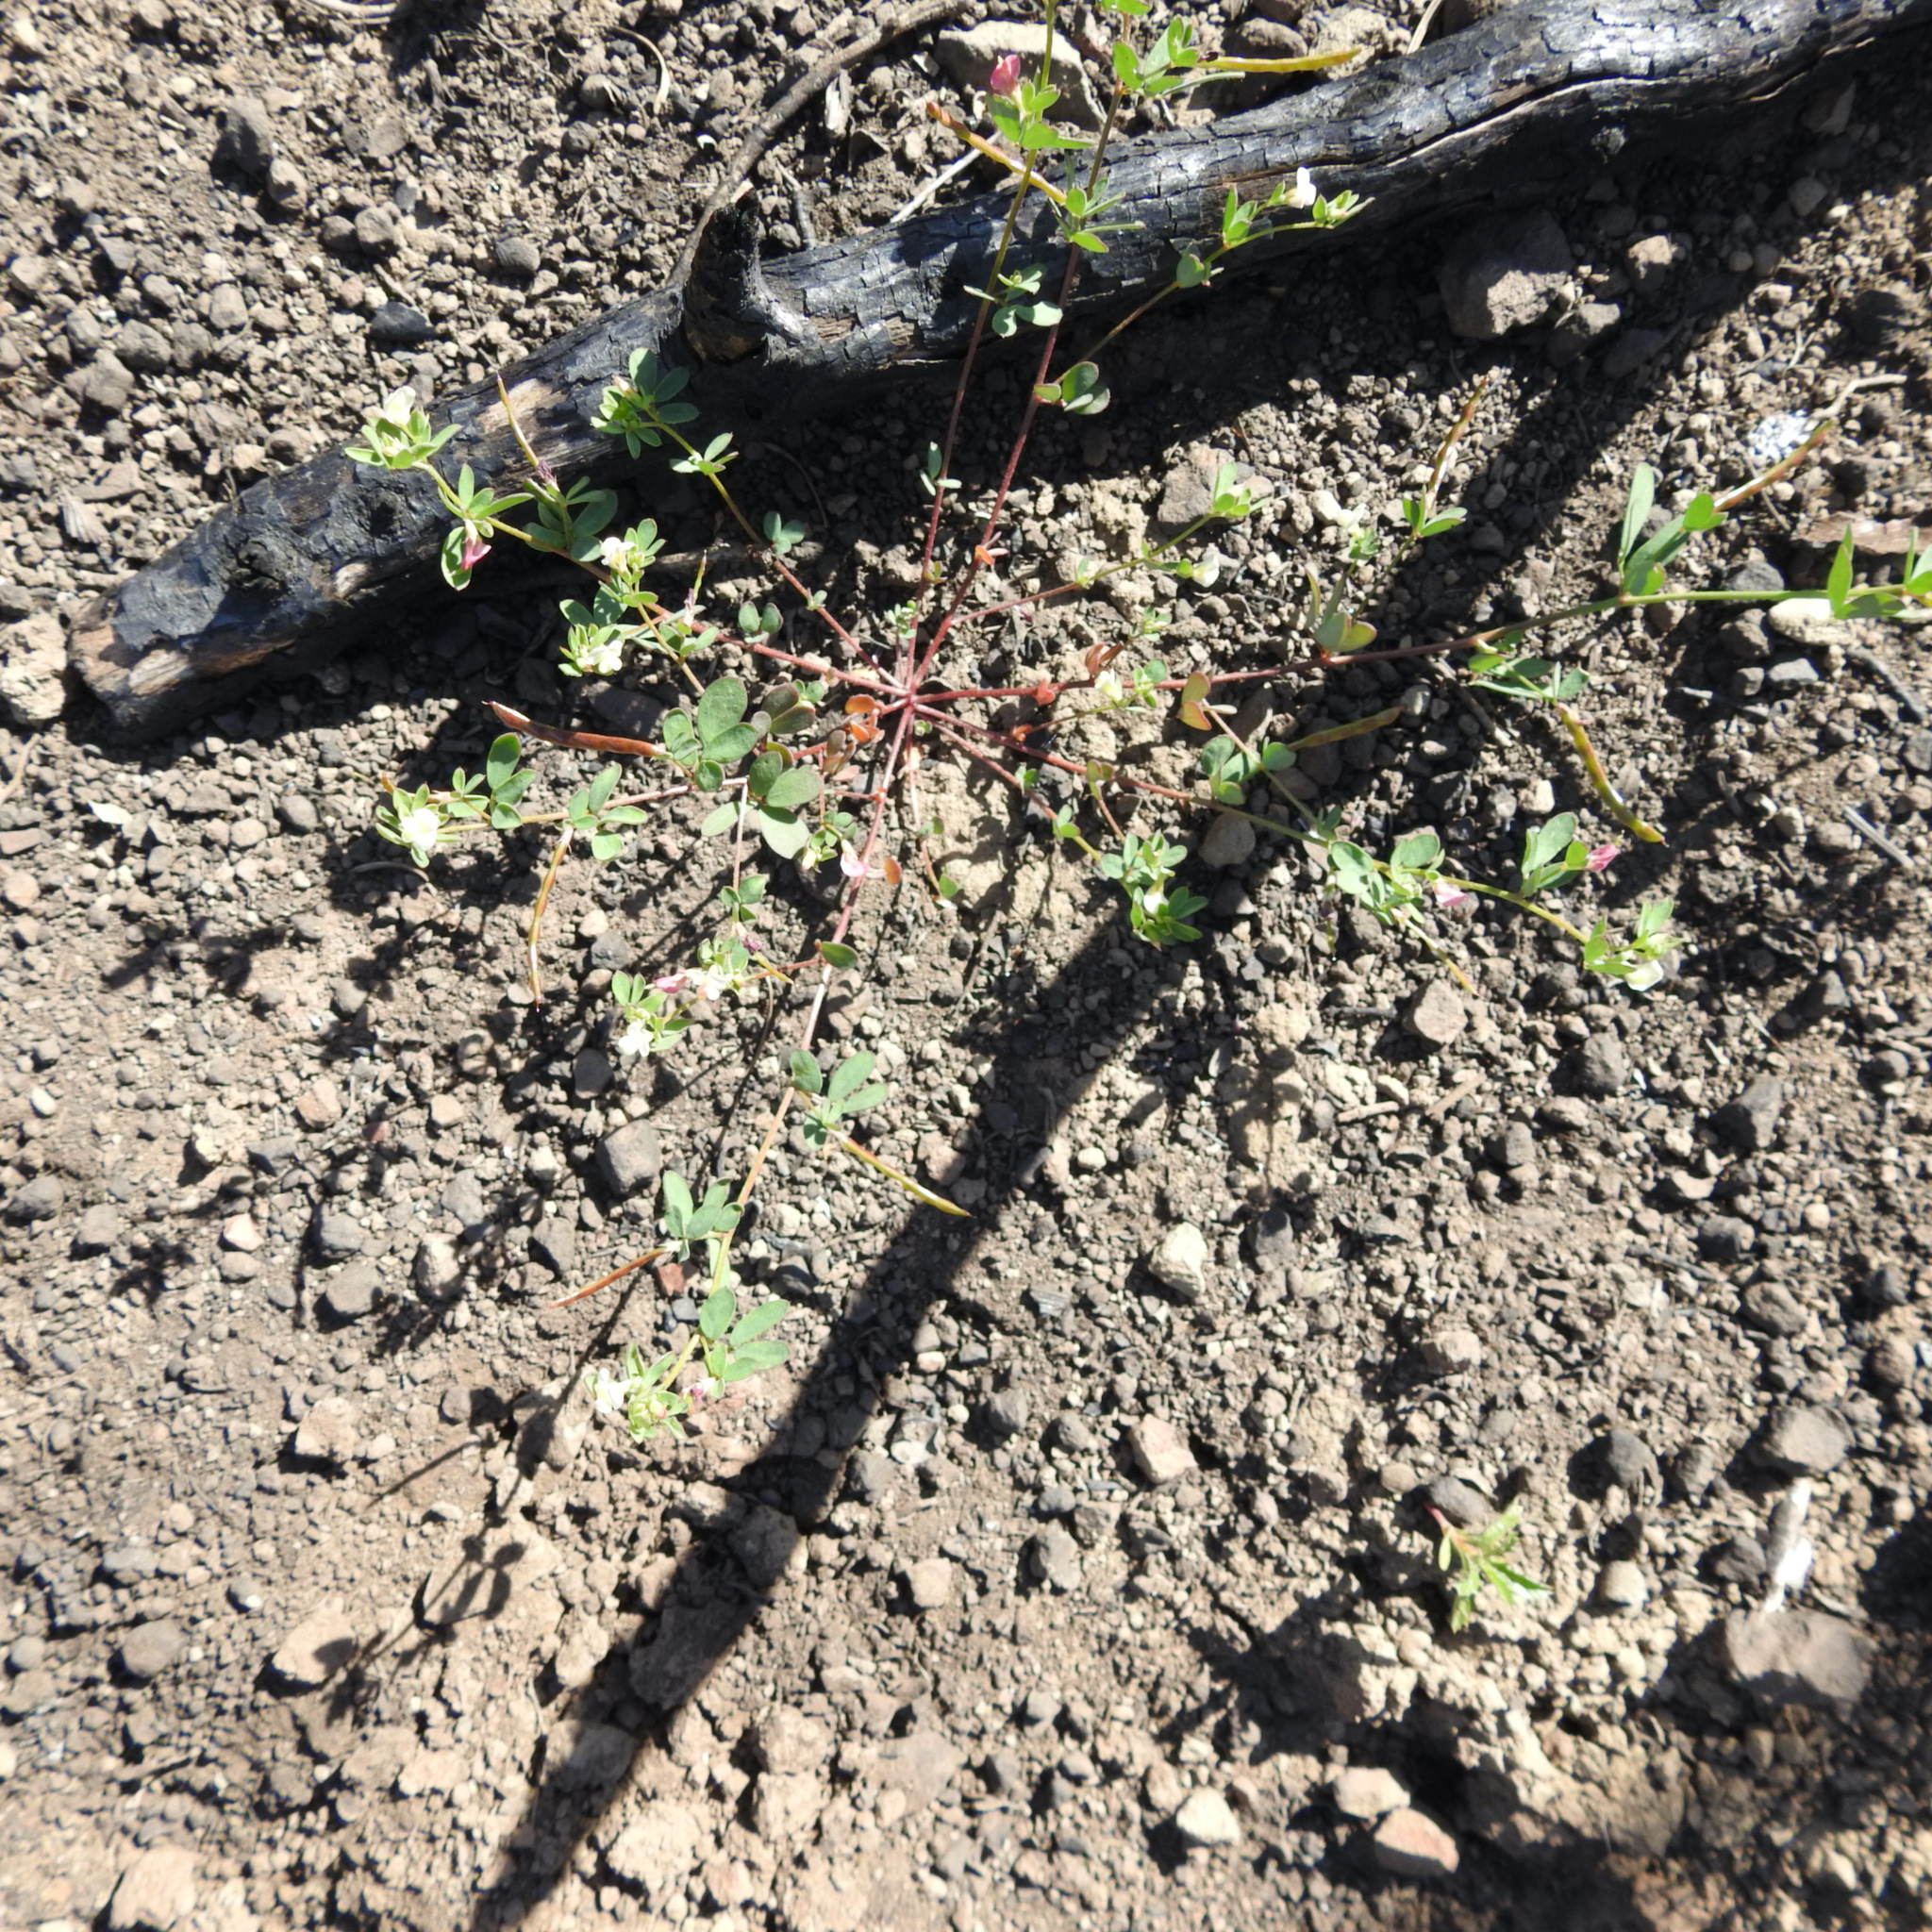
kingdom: Plantae
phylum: Tracheophyta
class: Magnoliopsida
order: Fabales
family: Fabaceae
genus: Acmispon
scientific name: Acmispon parviflorus
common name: Desert deer-vetch
